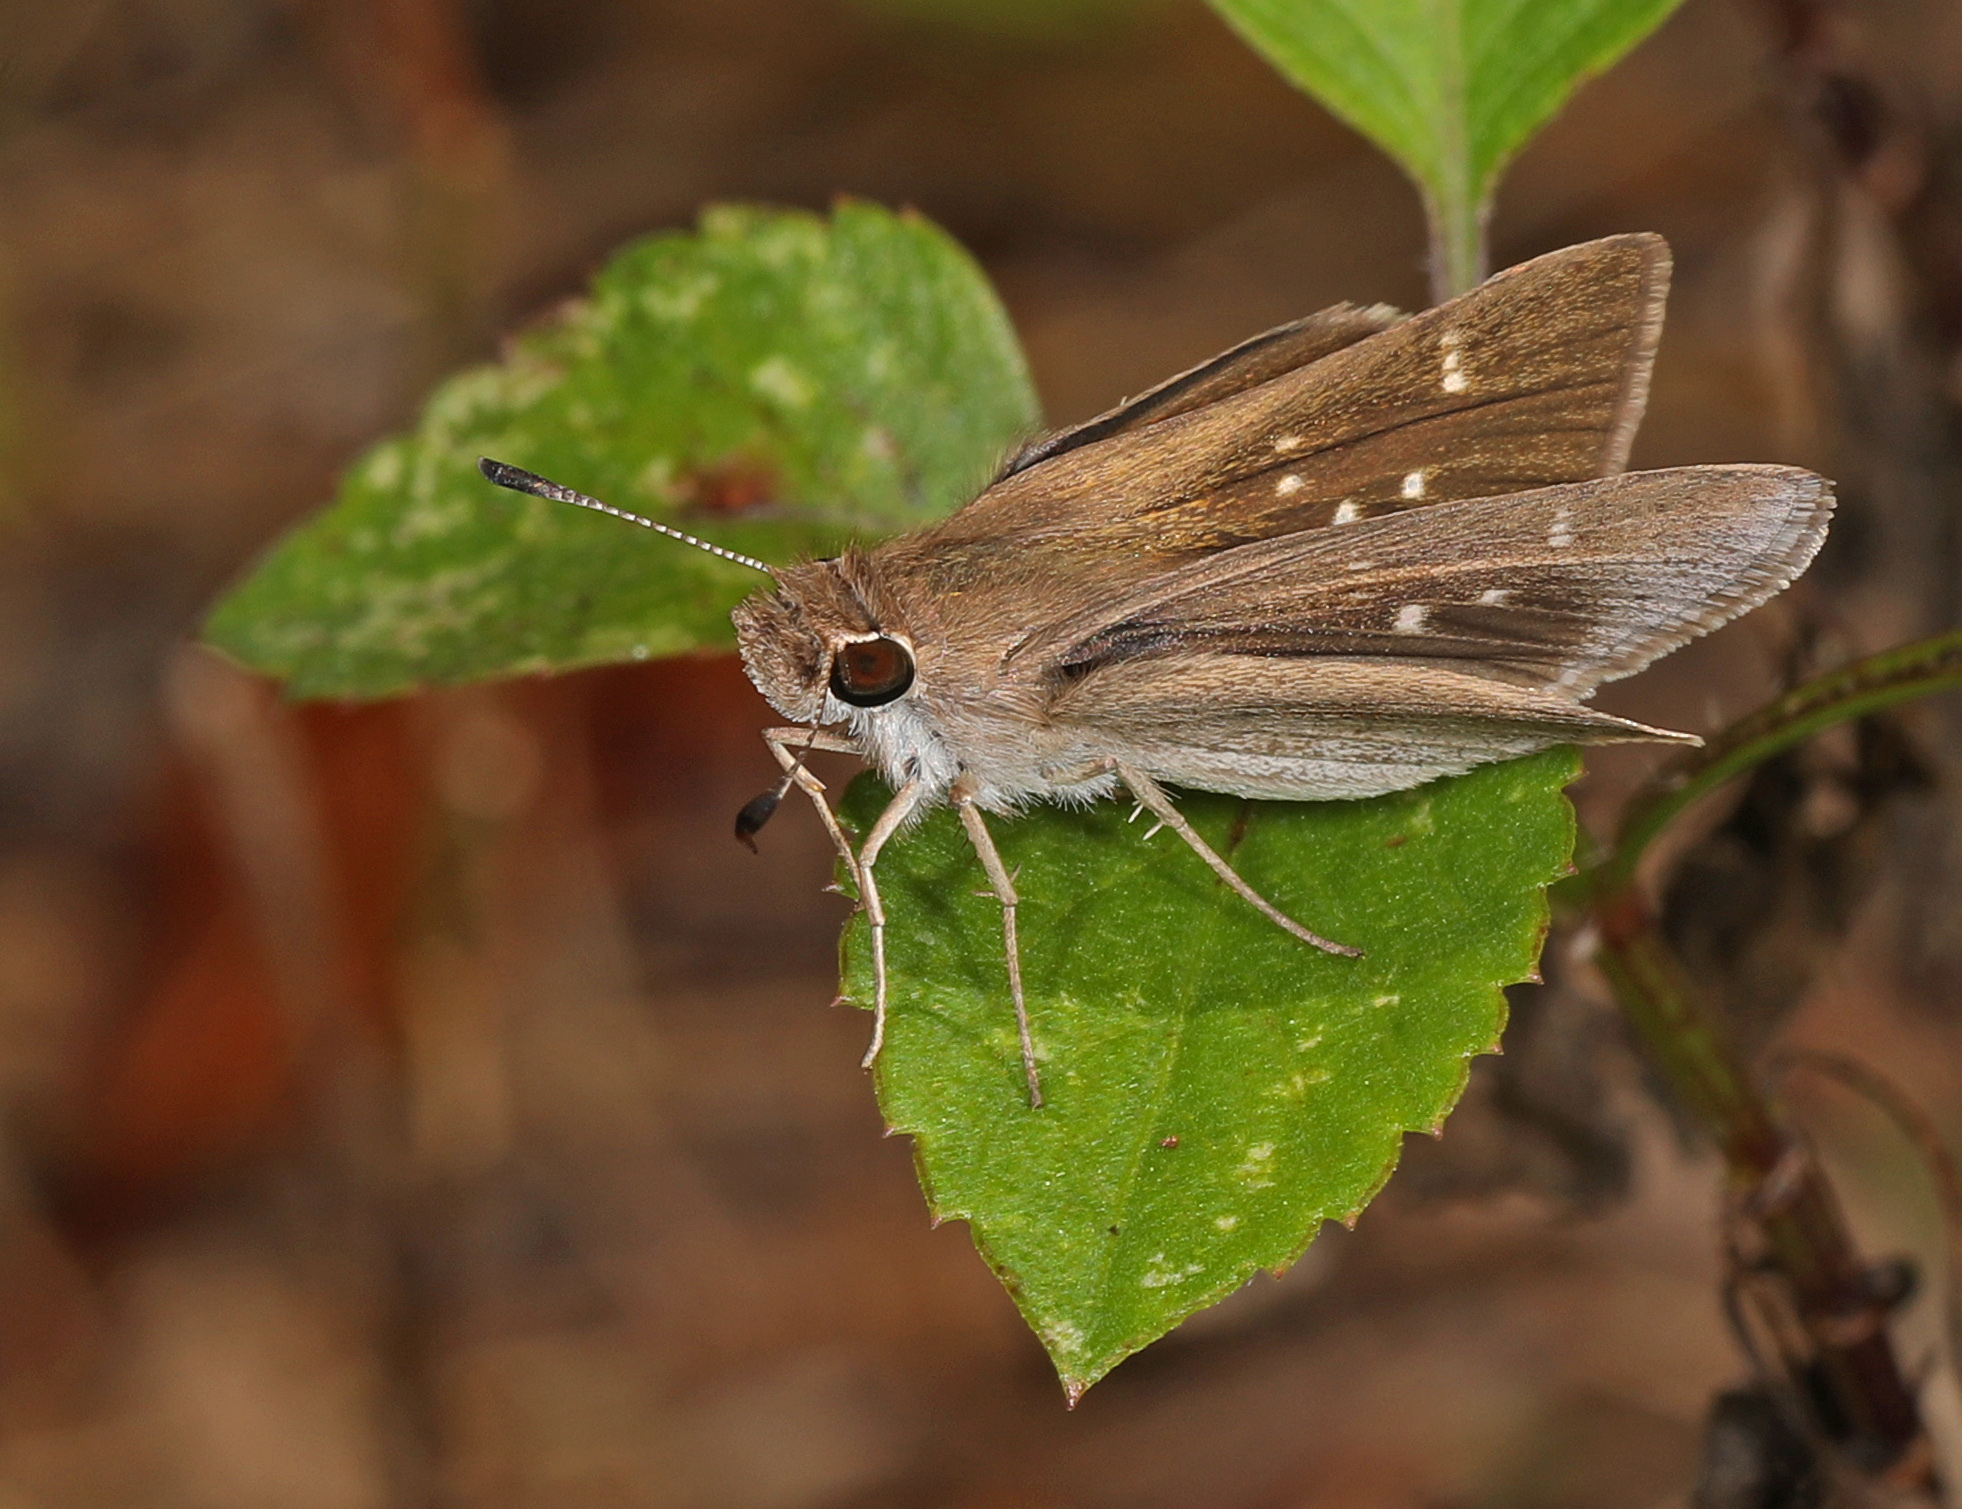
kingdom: Animalia
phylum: Arthropoda
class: Insecta
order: Lepidoptera
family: Hesperiidae
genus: Lerodea
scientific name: Lerodea eufala
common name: Eufala skipper
